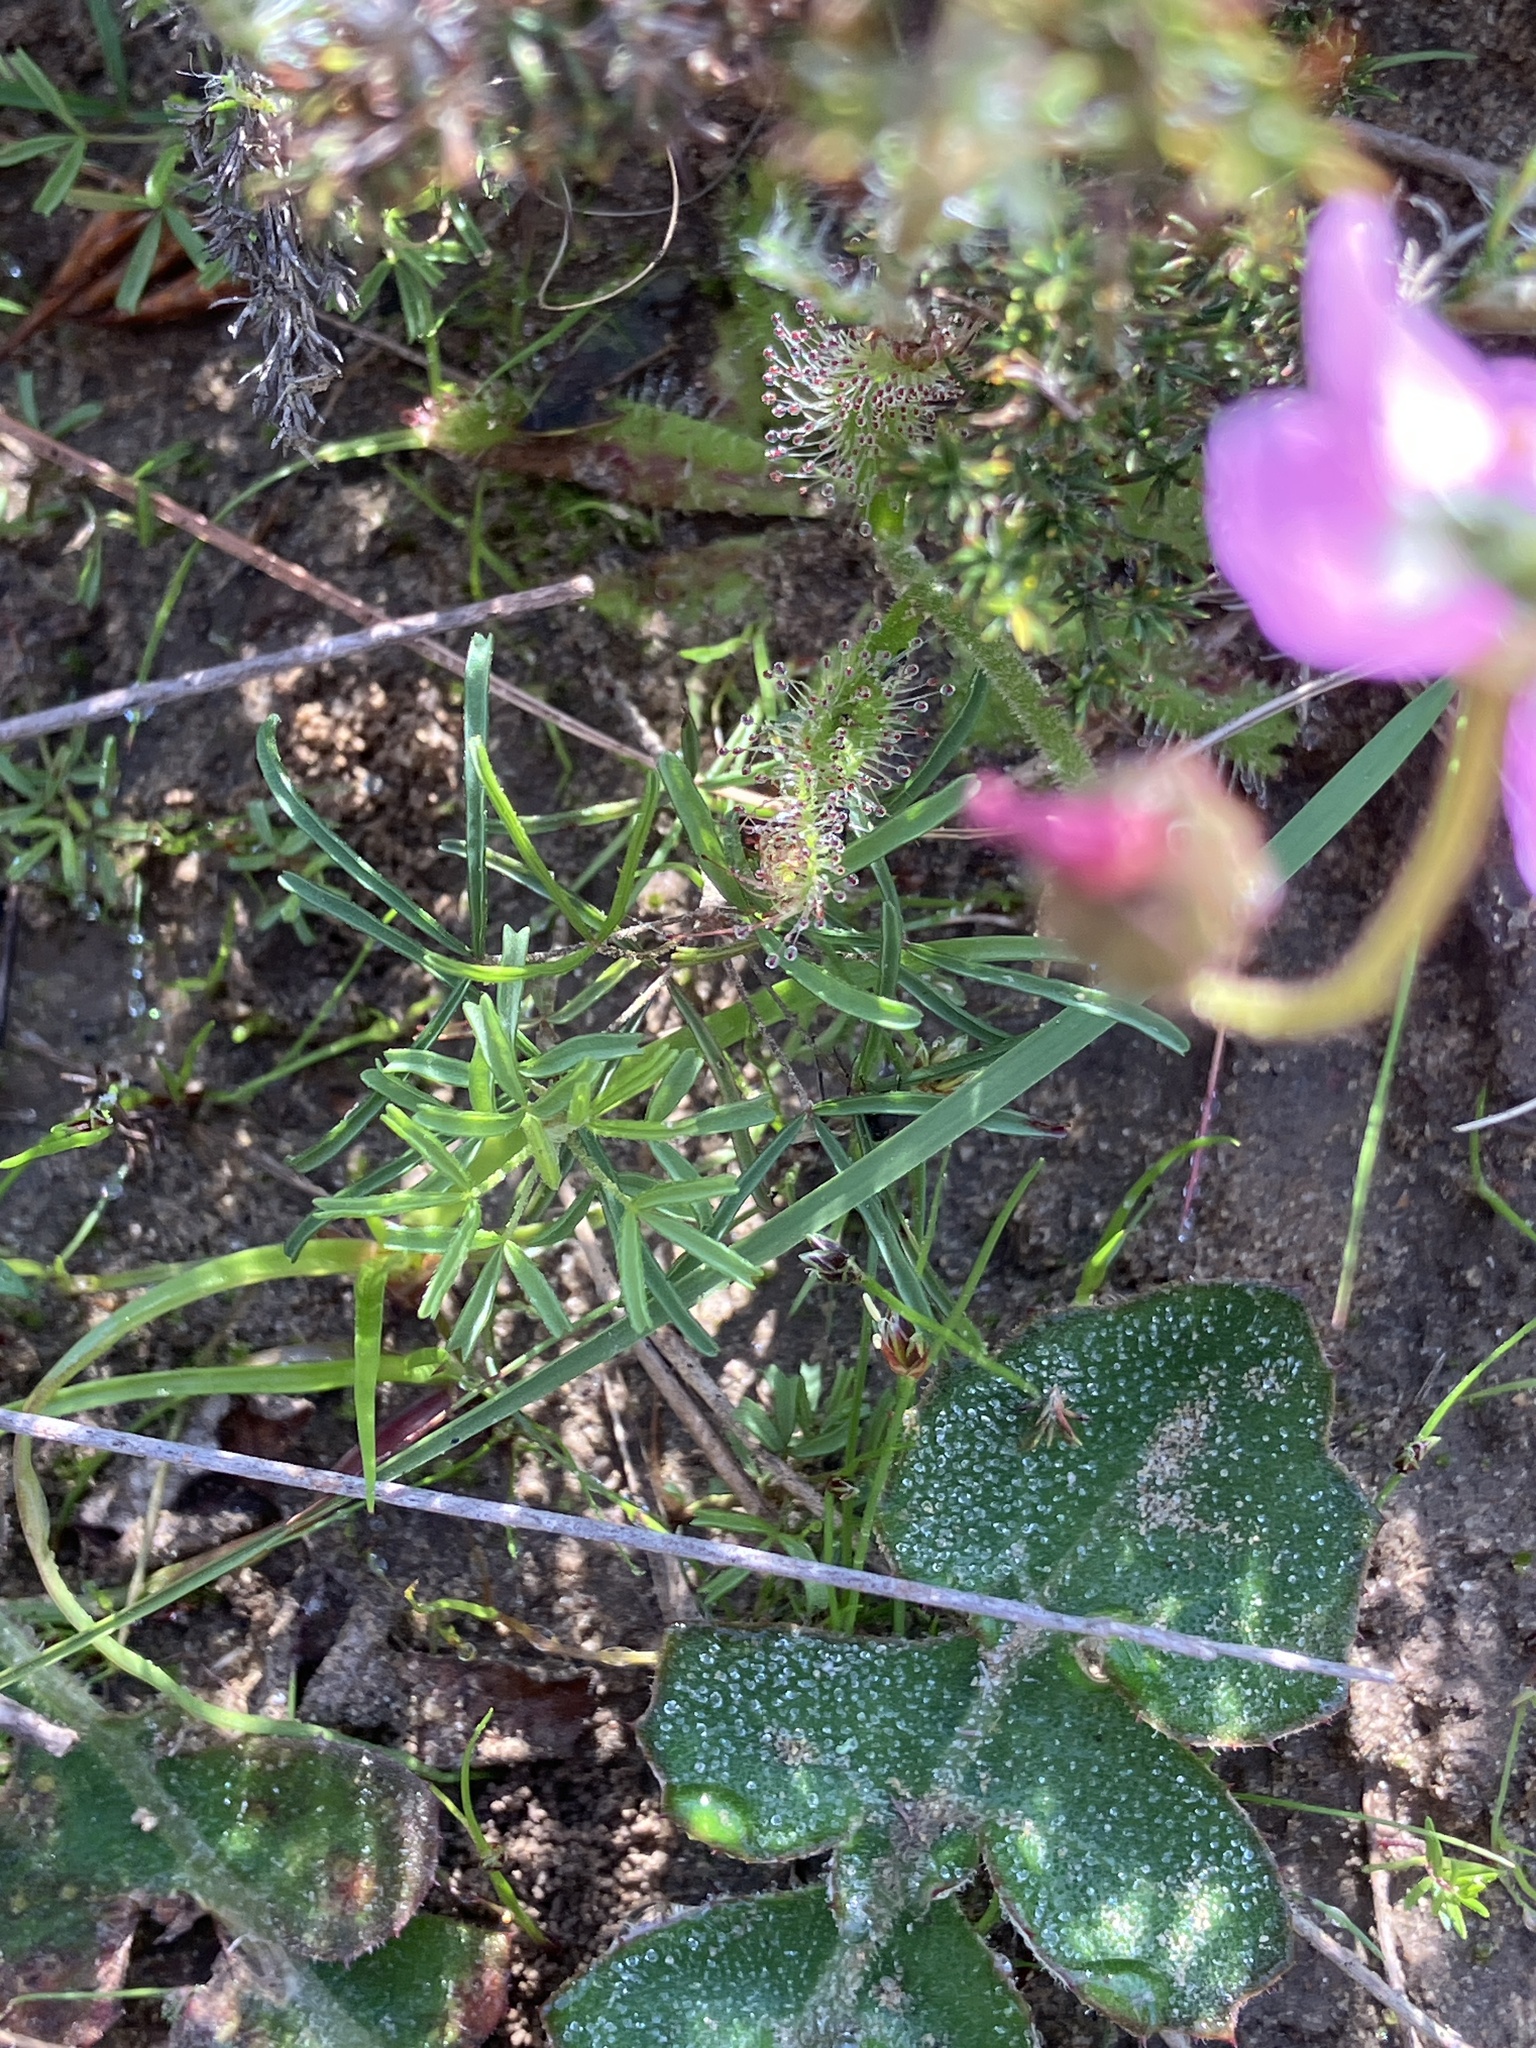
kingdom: Plantae
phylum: Tracheophyta
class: Magnoliopsida
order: Caryophyllales
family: Droseraceae
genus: Drosera
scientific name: Drosera cistiflora
